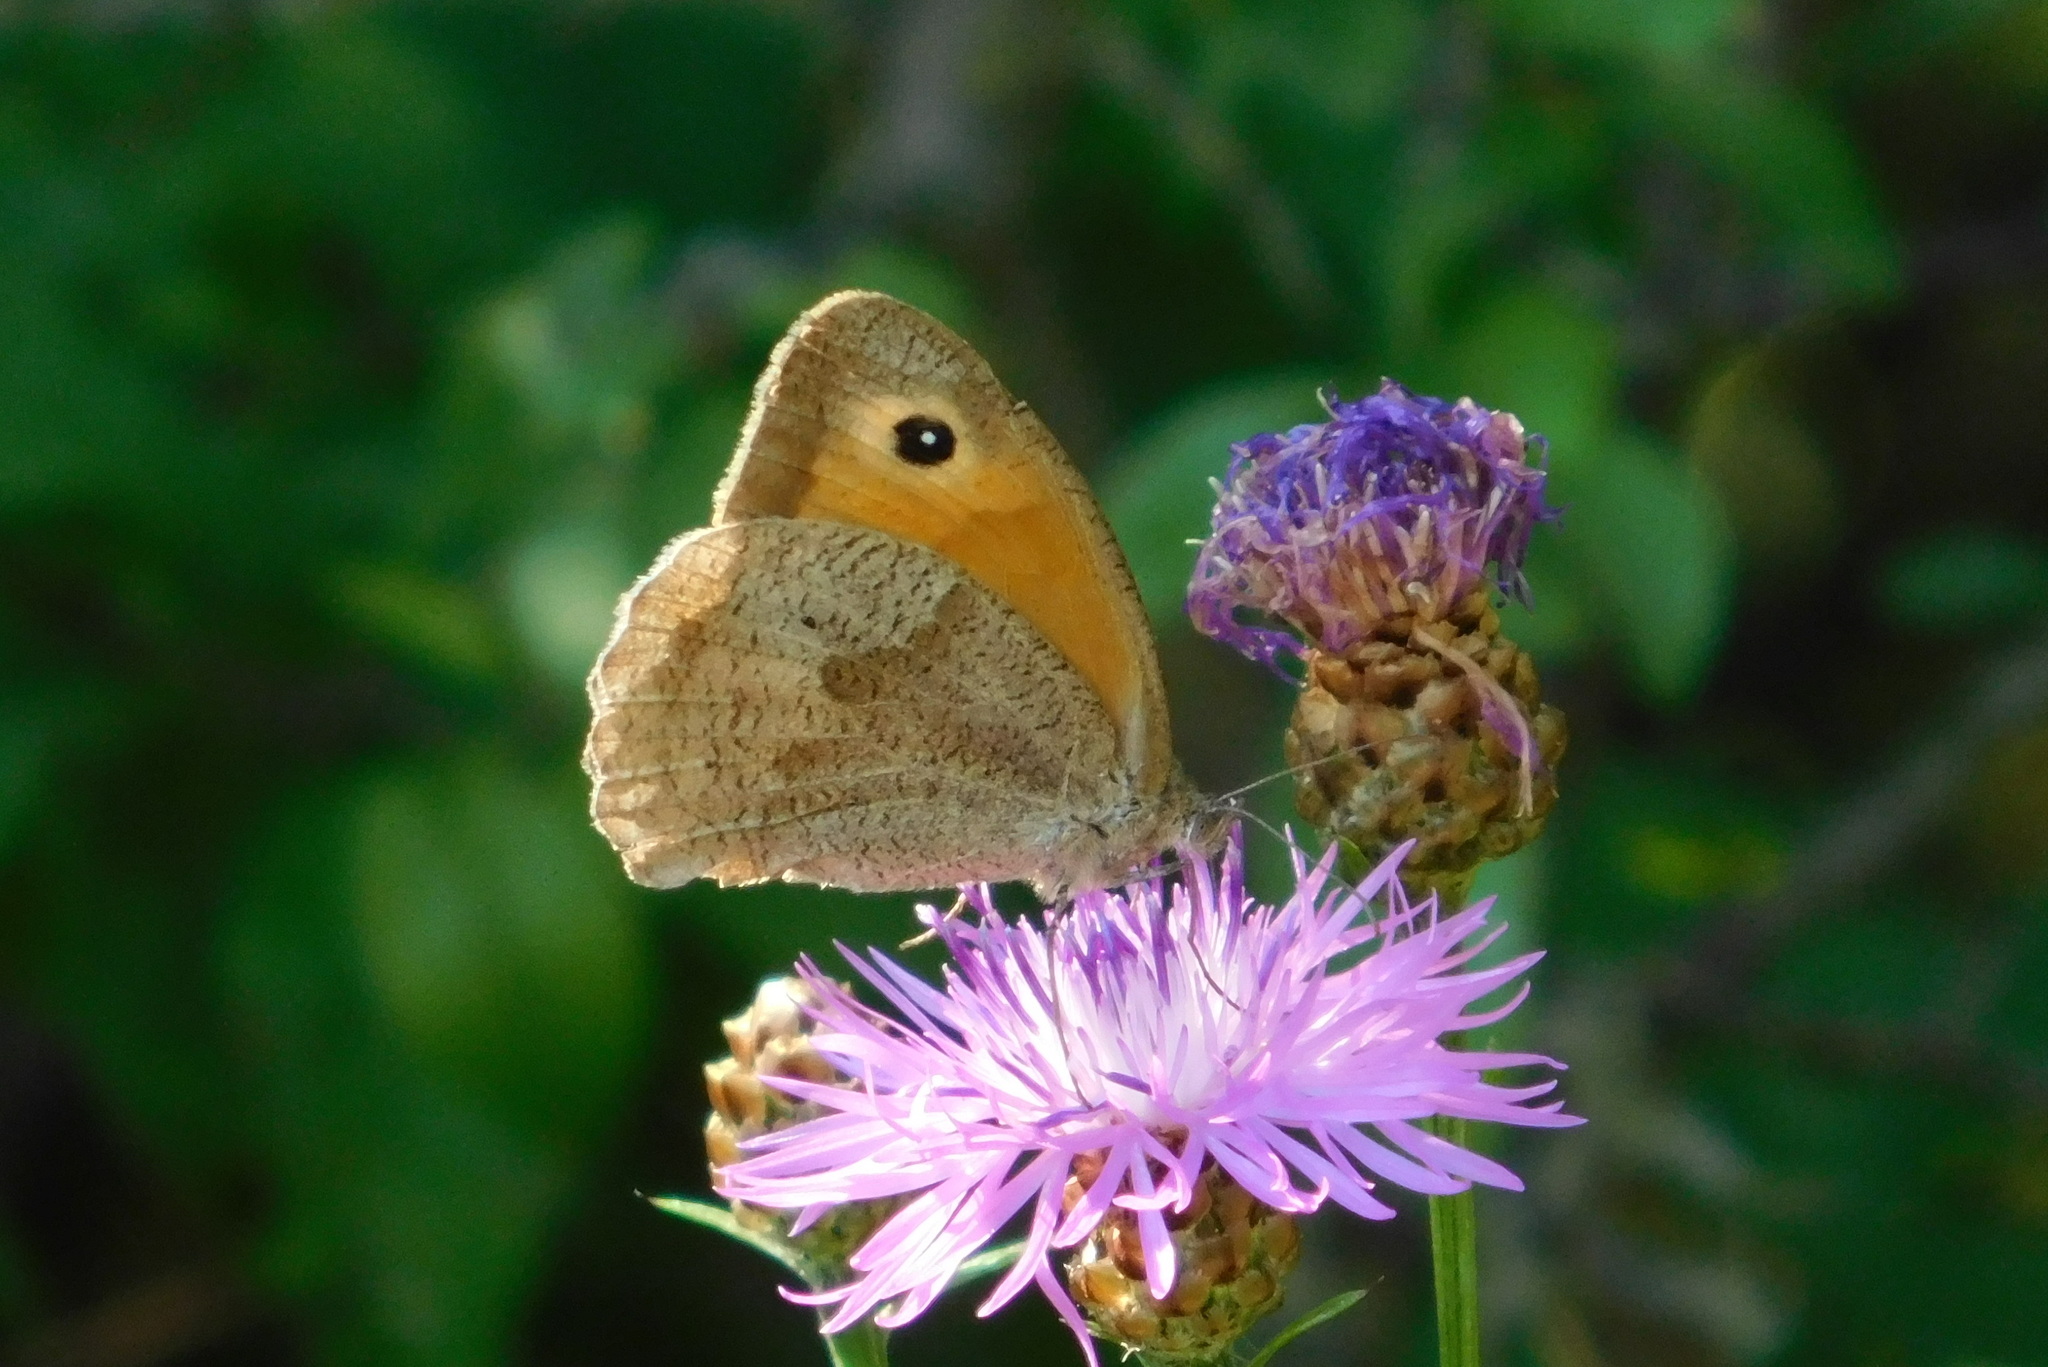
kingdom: Animalia
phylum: Arthropoda
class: Insecta
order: Lepidoptera
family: Nymphalidae
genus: Maniola
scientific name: Maniola jurtina
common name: Meadow brown
